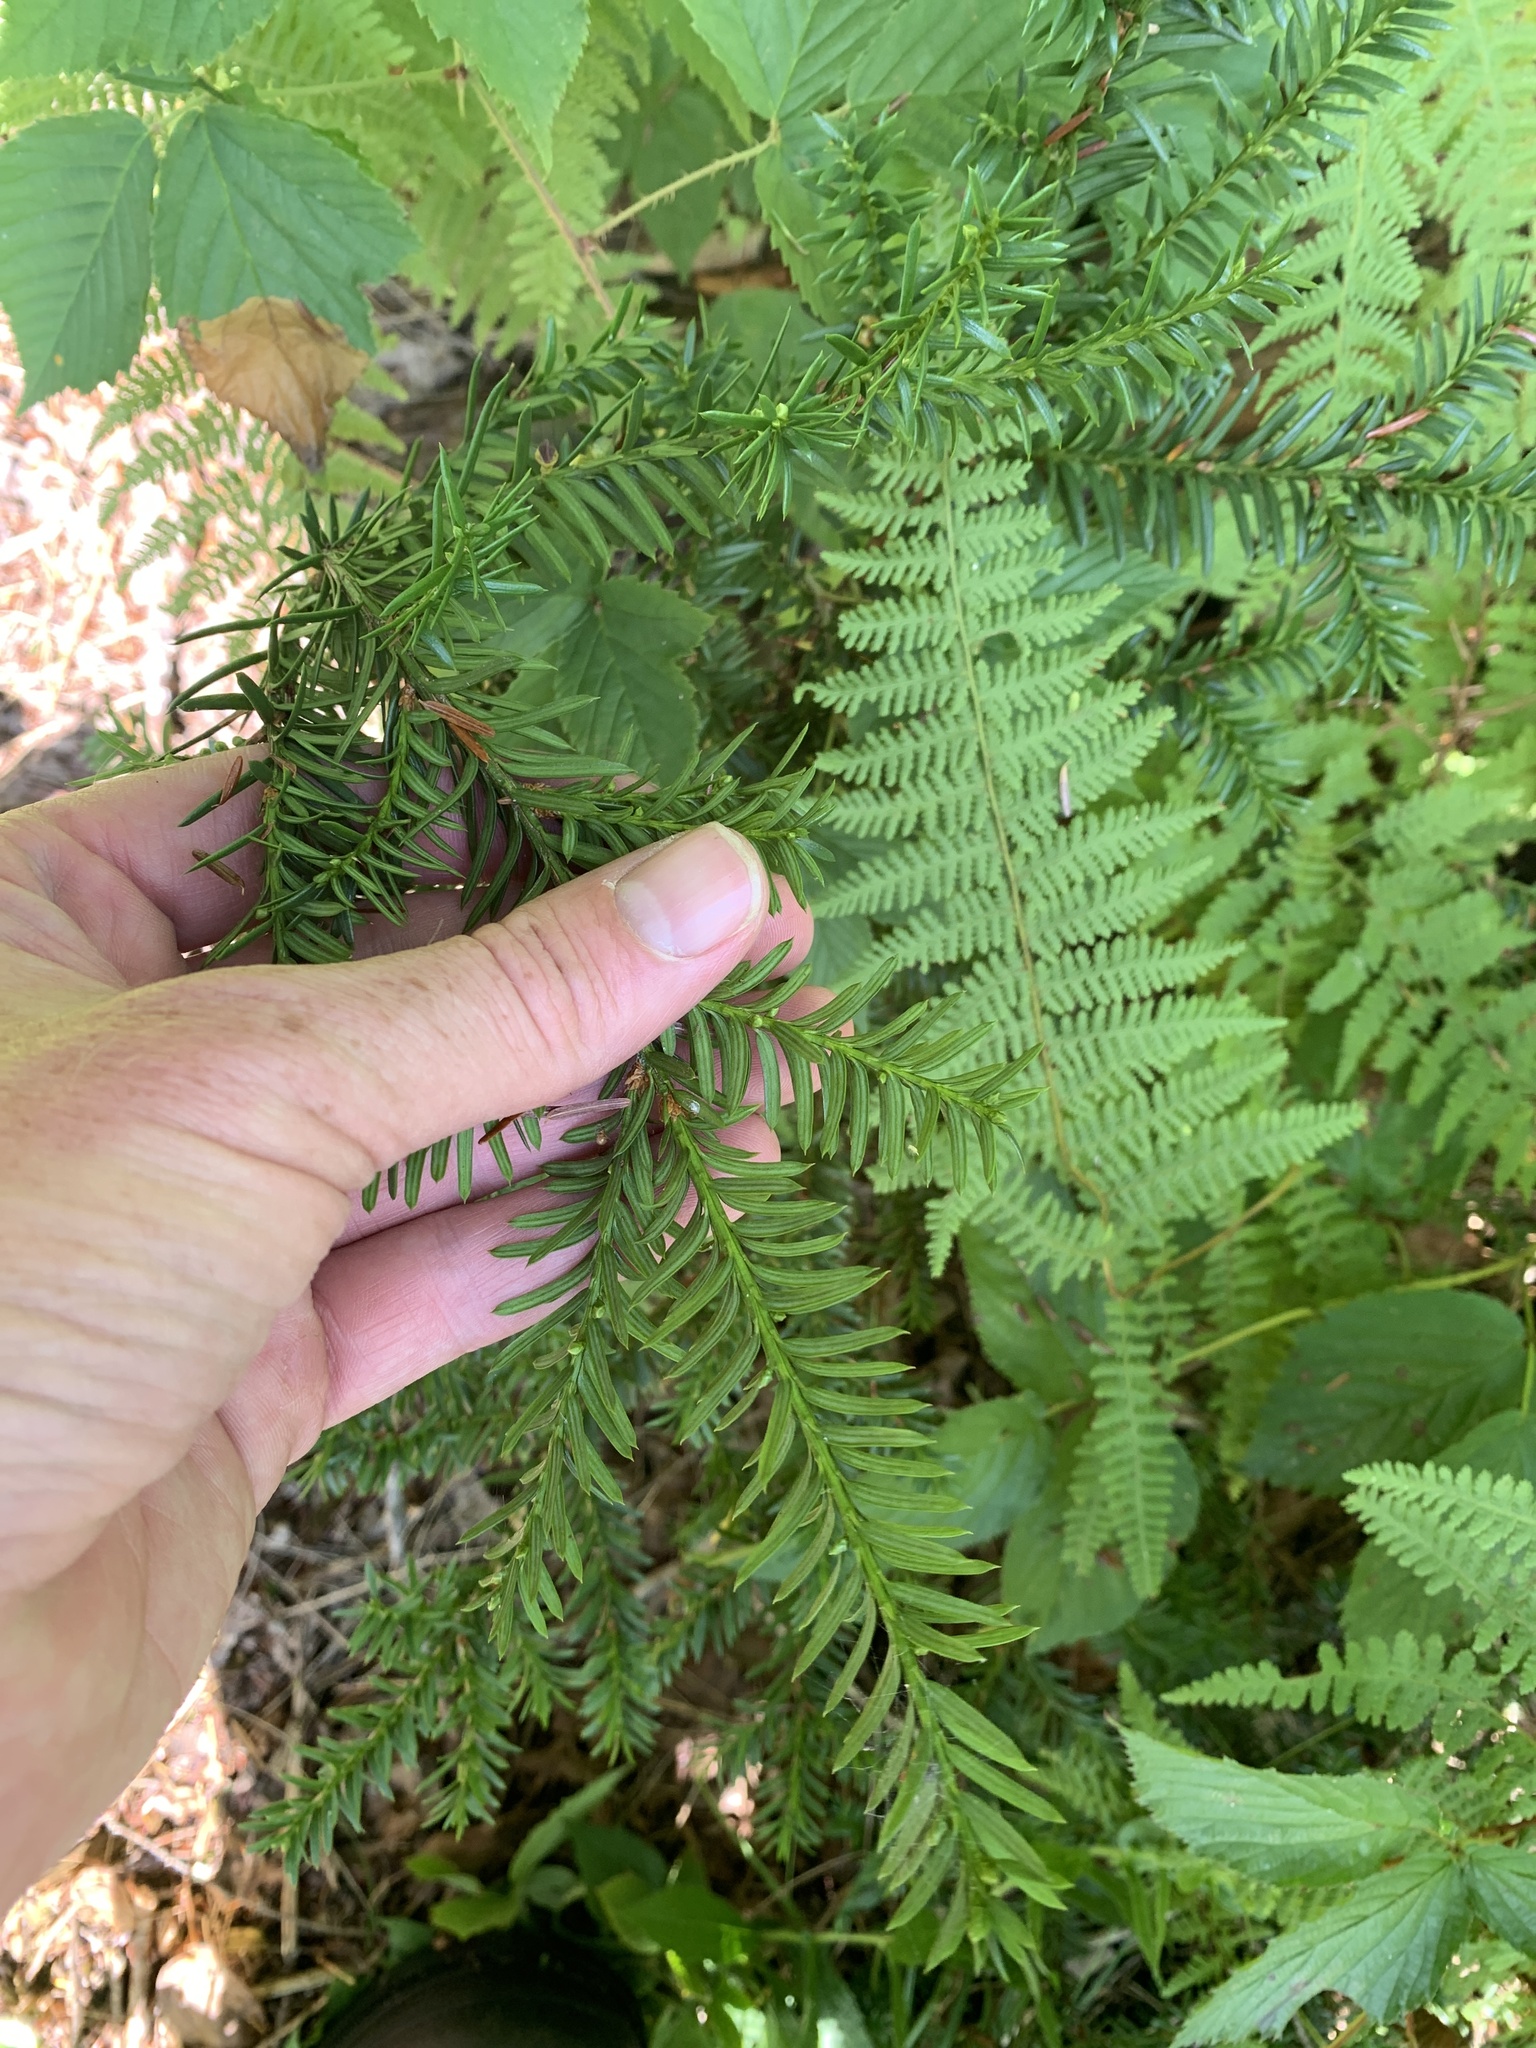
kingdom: Plantae
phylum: Tracheophyta
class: Pinopsida
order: Pinales
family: Taxaceae
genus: Taxus
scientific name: Taxus canadensis
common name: American yew
